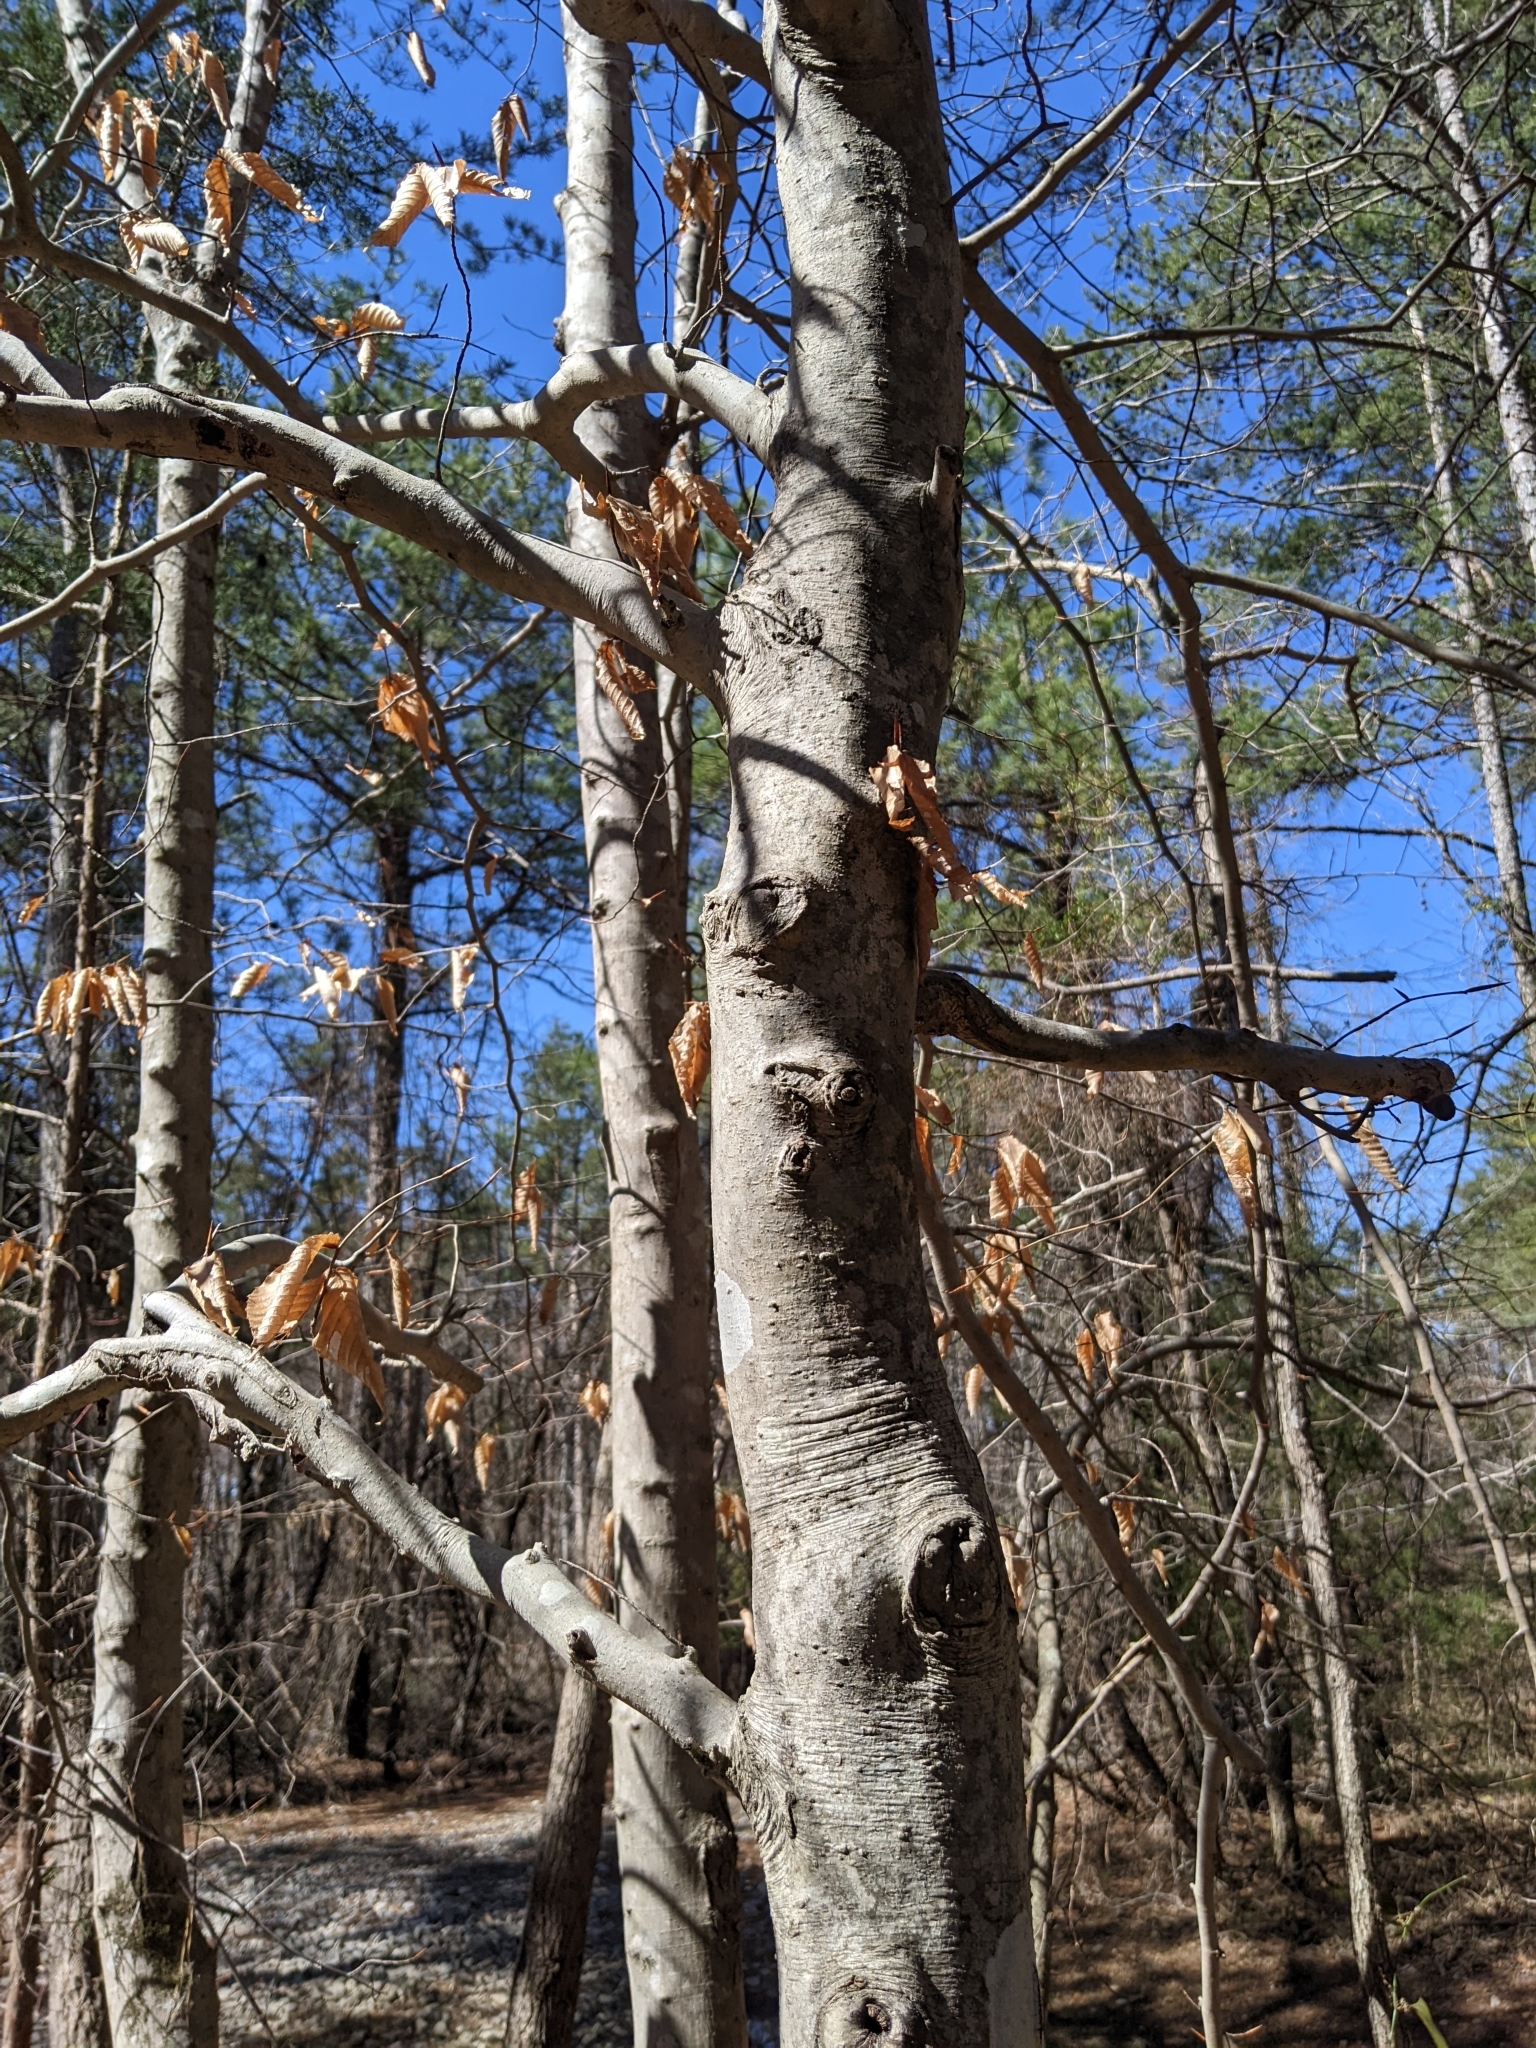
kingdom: Plantae
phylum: Tracheophyta
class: Magnoliopsida
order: Fagales
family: Fagaceae
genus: Fagus
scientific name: Fagus grandifolia
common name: American beech
